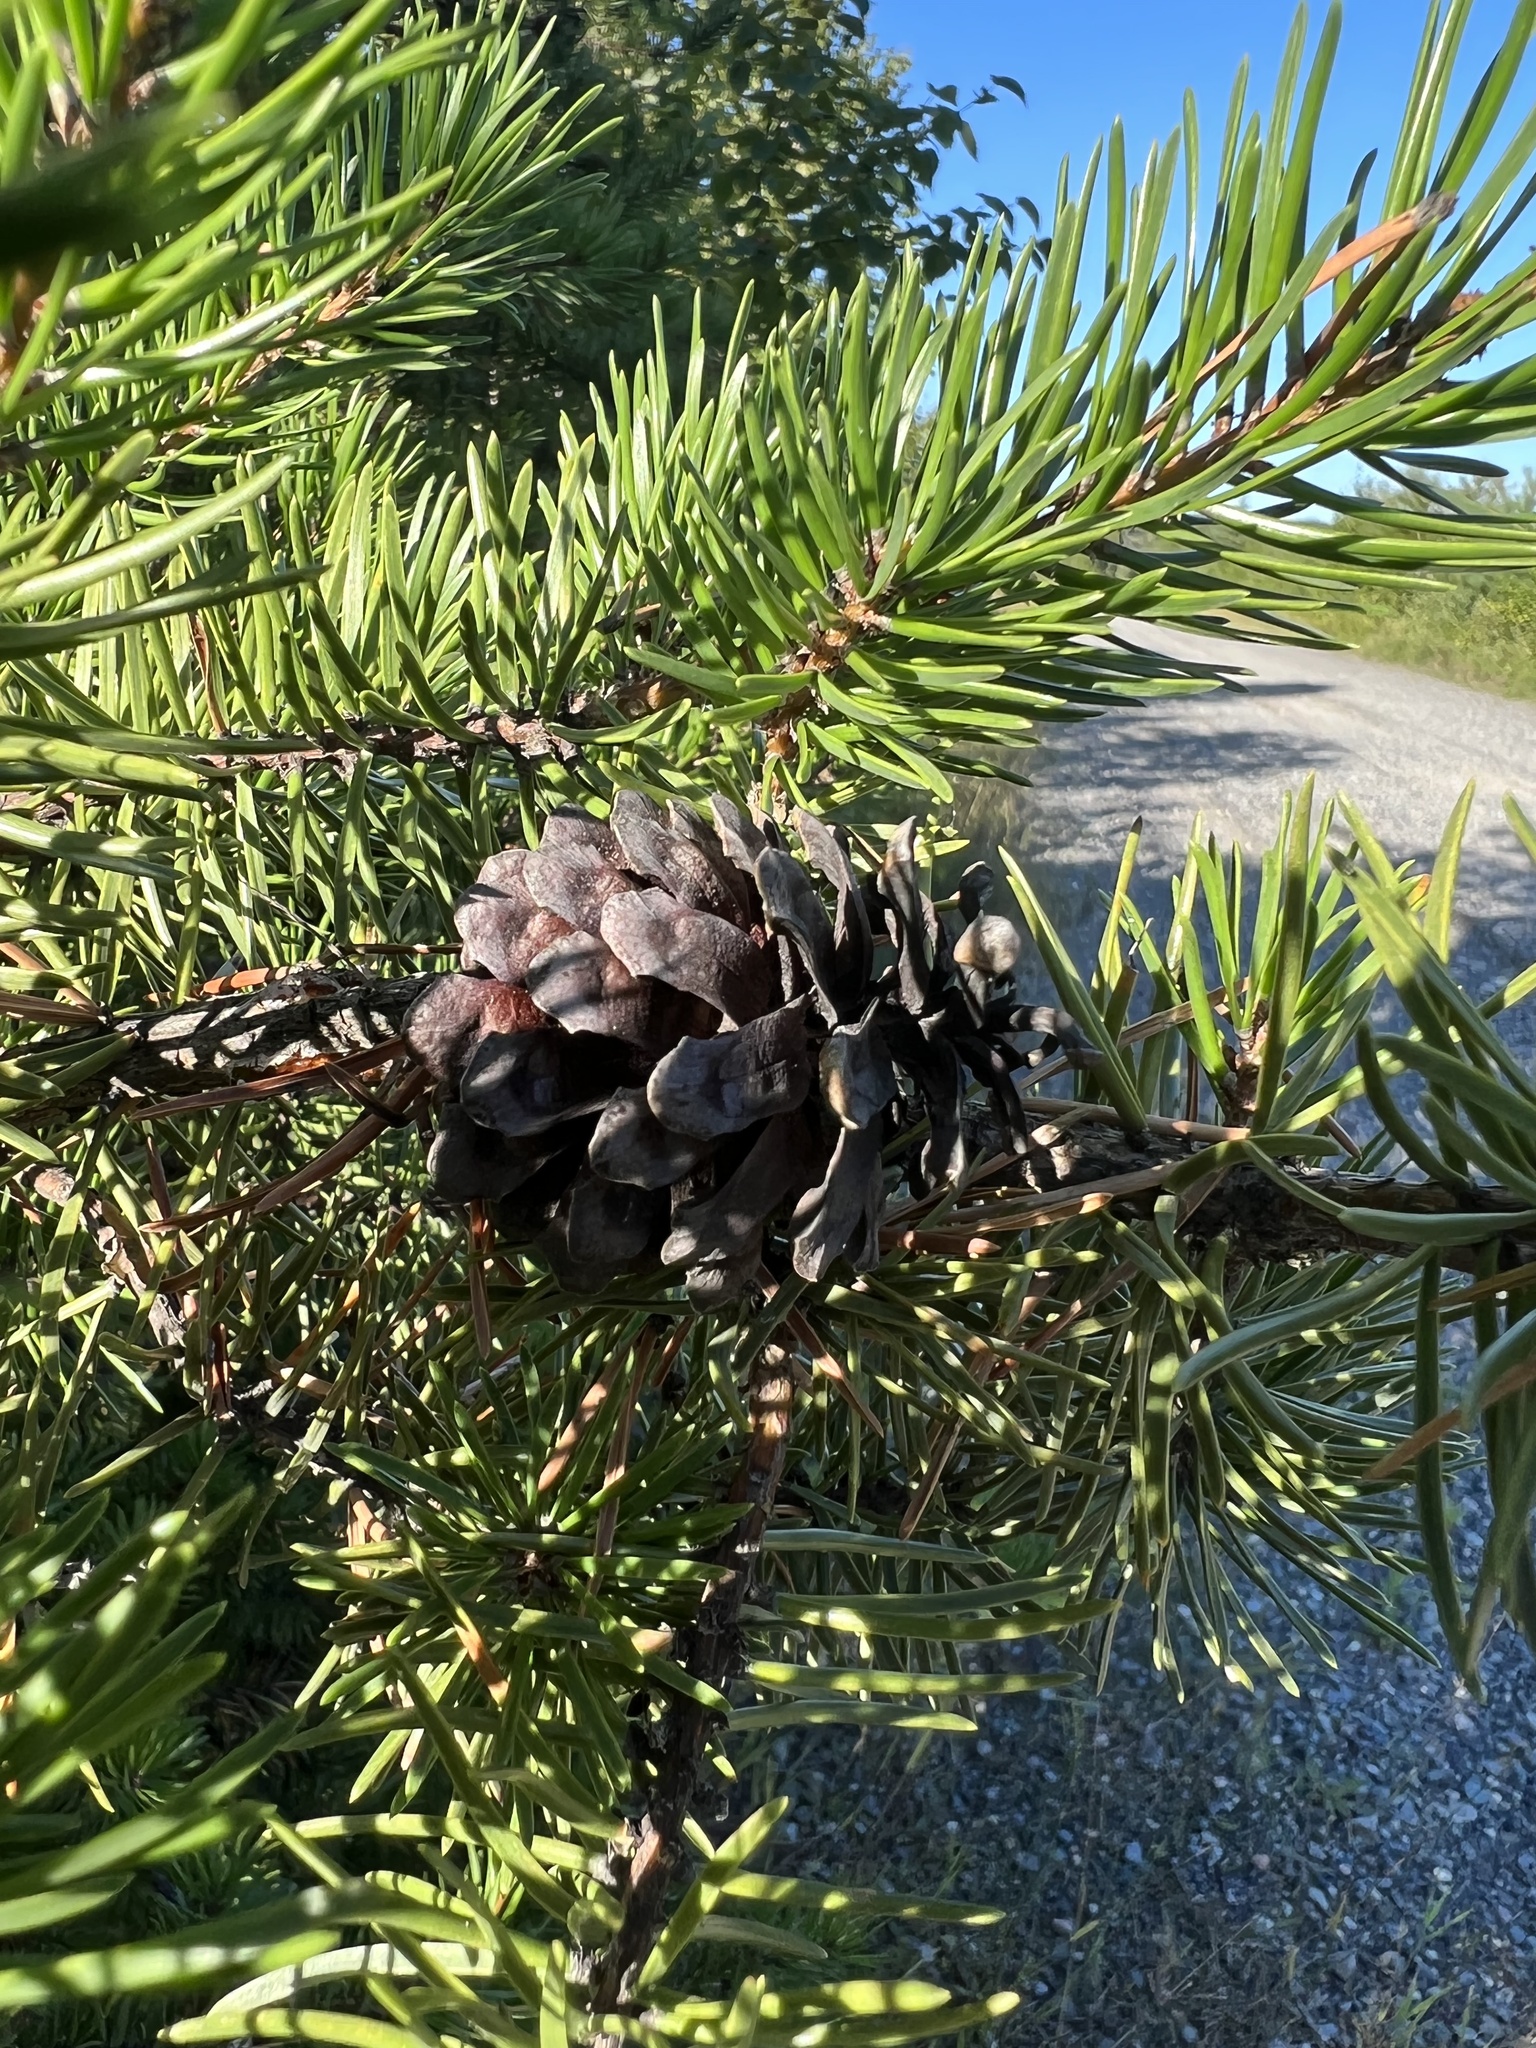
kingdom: Plantae
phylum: Tracheophyta
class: Pinopsida
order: Pinales
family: Pinaceae
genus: Pinus
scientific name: Pinus banksiana
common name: Jack pine
